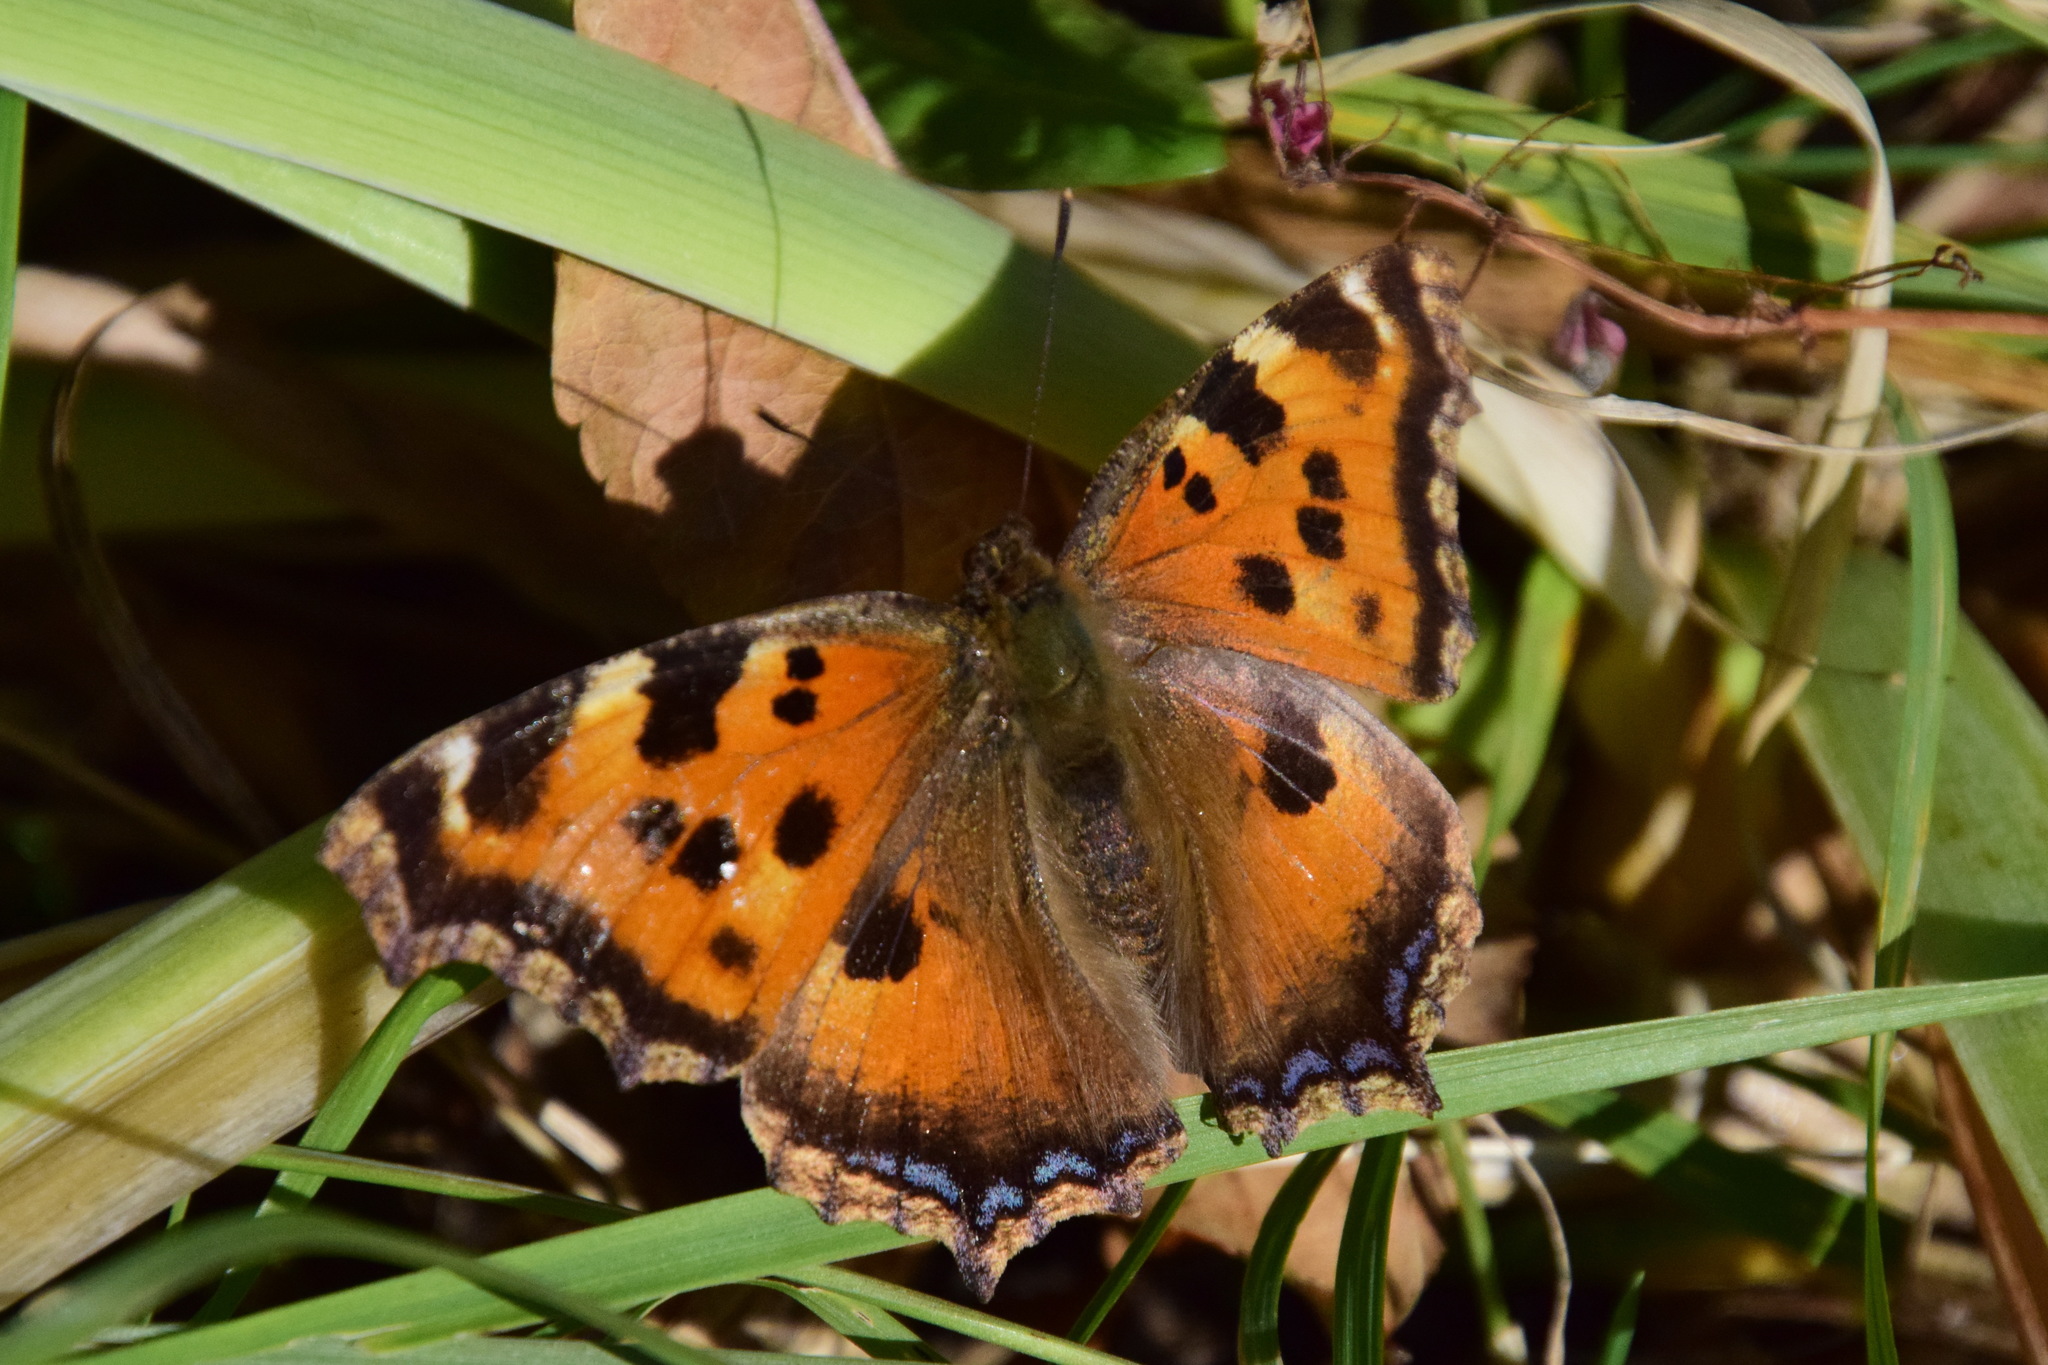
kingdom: Animalia
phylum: Arthropoda
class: Insecta
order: Lepidoptera
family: Nymphalidae
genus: Nymphalis
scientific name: Nymphalis xanthomelas
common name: Scarce tortoiseshell
